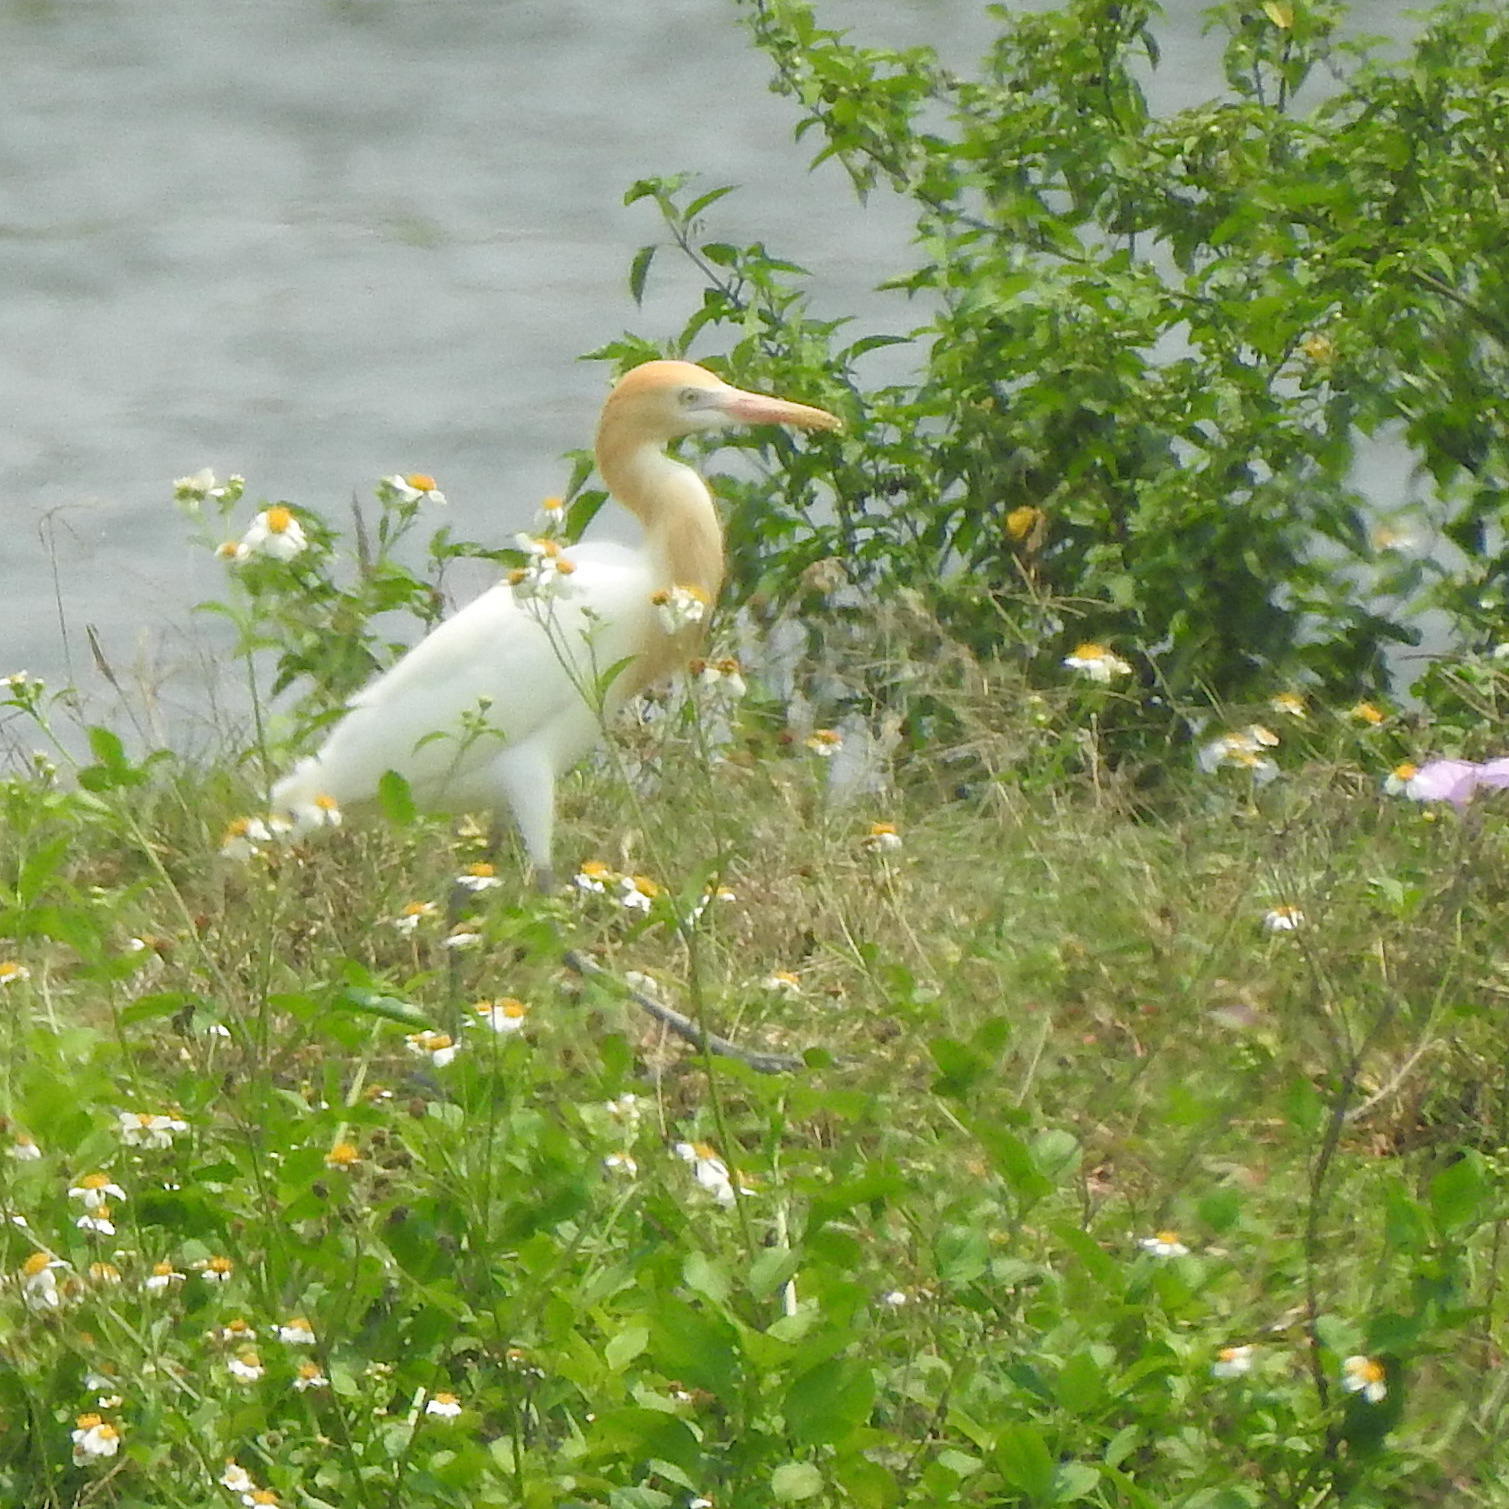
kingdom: Animalia
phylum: Chordata
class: Aves
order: Pelecaniformes
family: Ardeidae
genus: Bubulcus
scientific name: Bubulcus coromandus
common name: Eastern cattle egret
